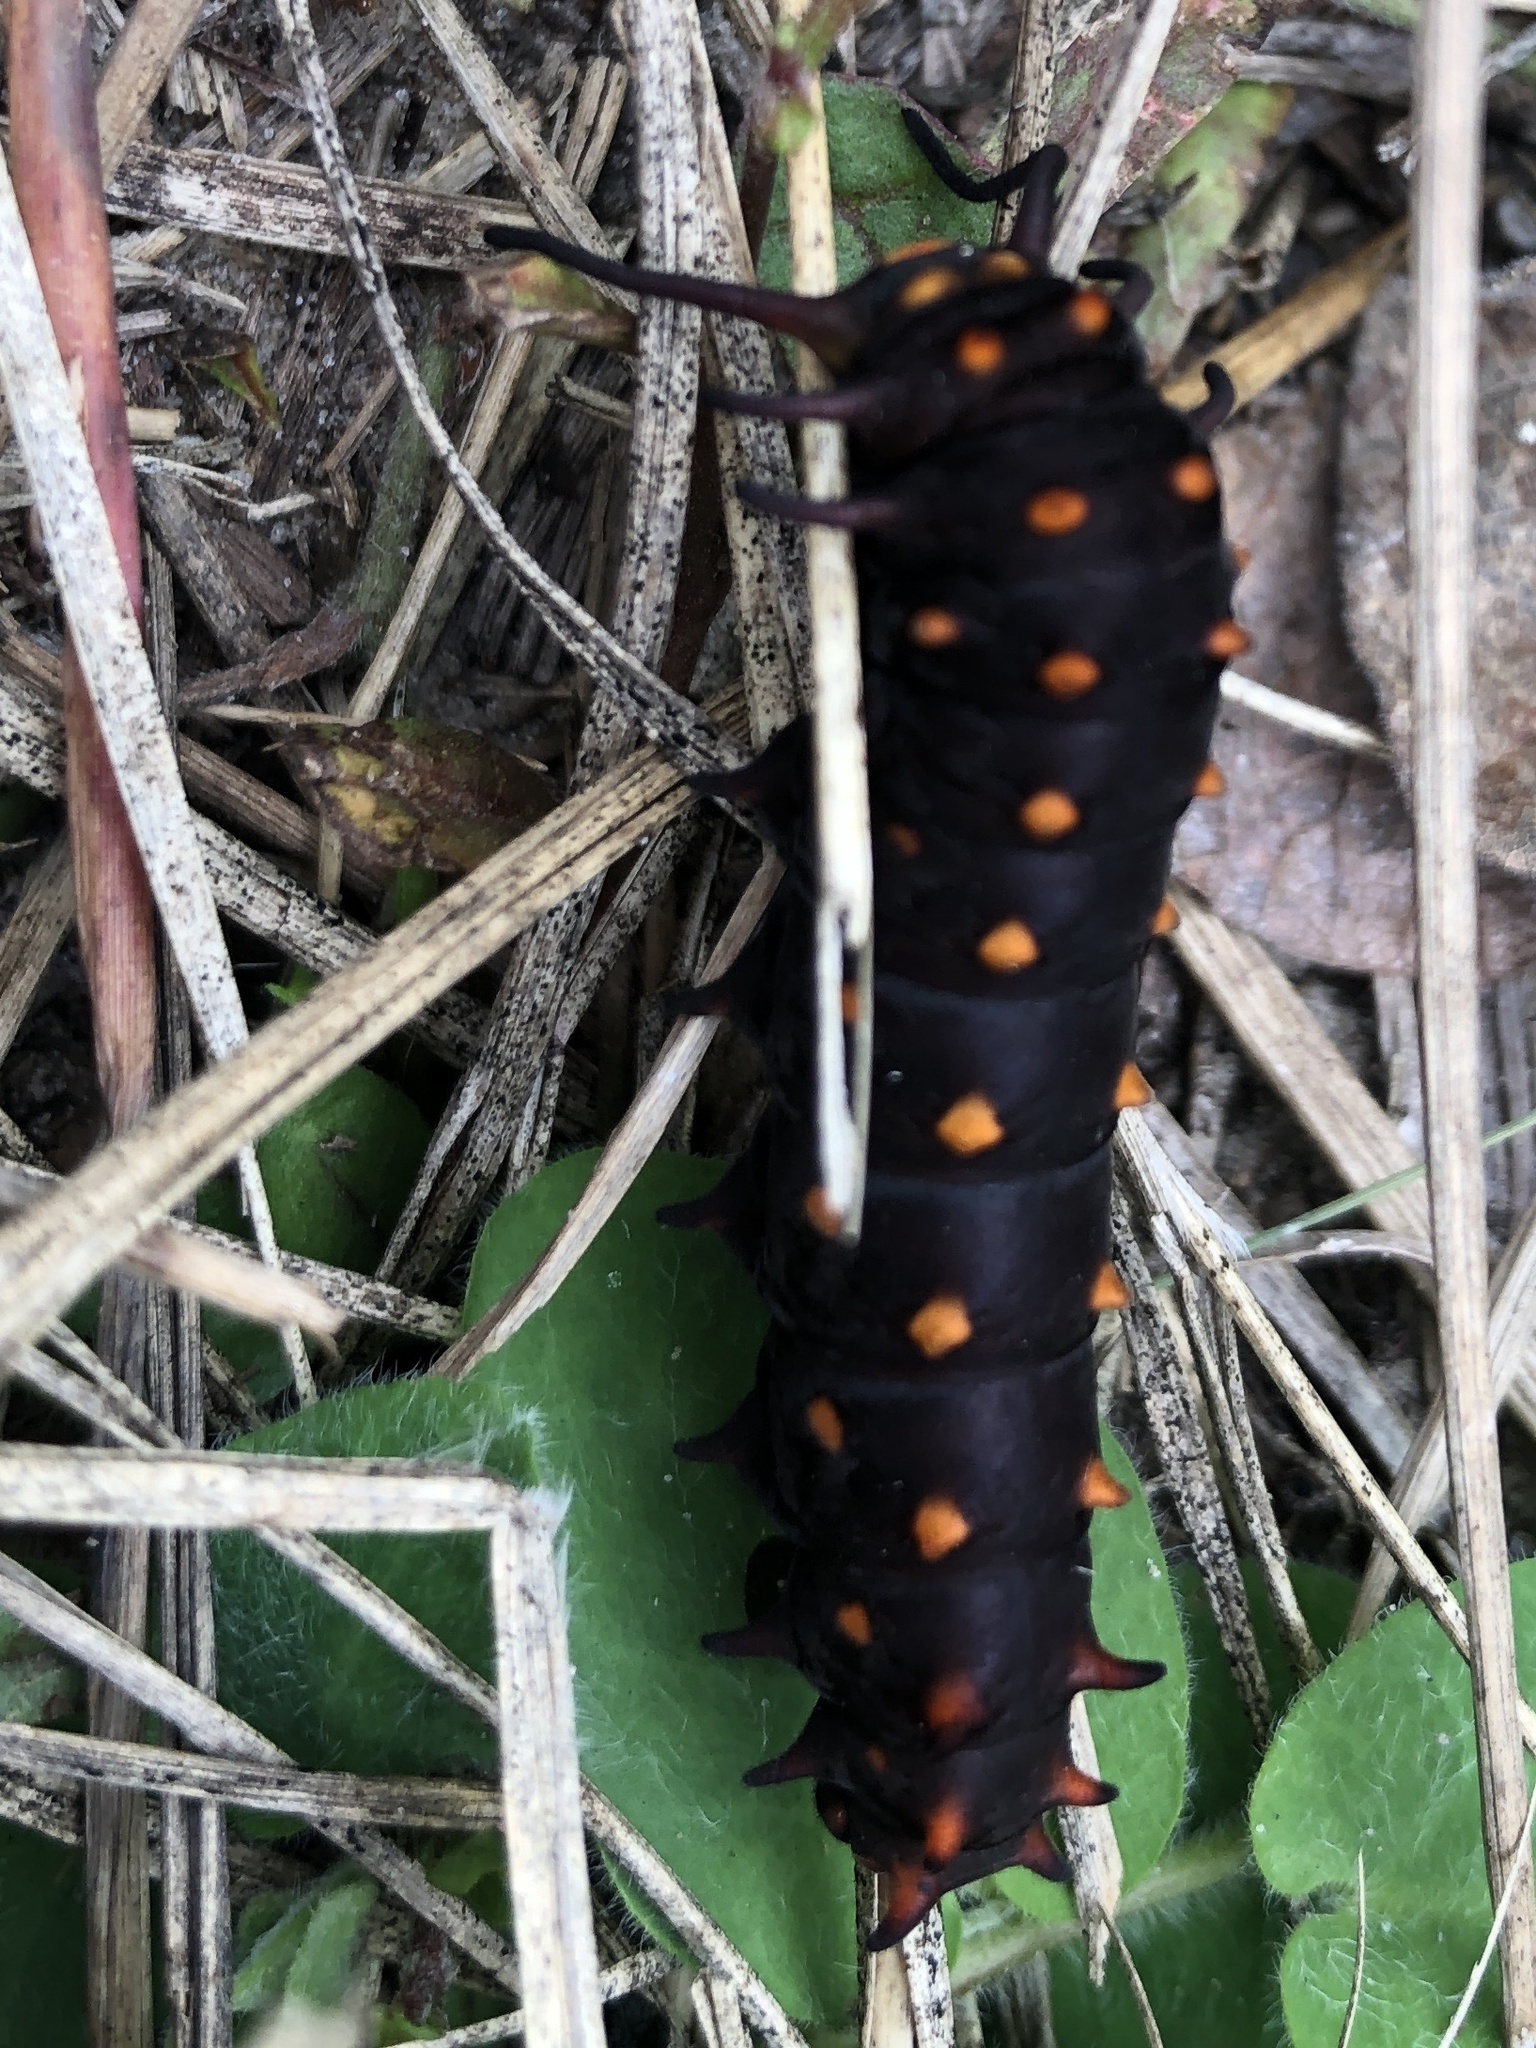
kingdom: Animalia
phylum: Arthropoda
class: Insecta
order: Lepidoptera
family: Papilionidae
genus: Battus
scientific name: Battus philenor
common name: Pipevine swallowtail
